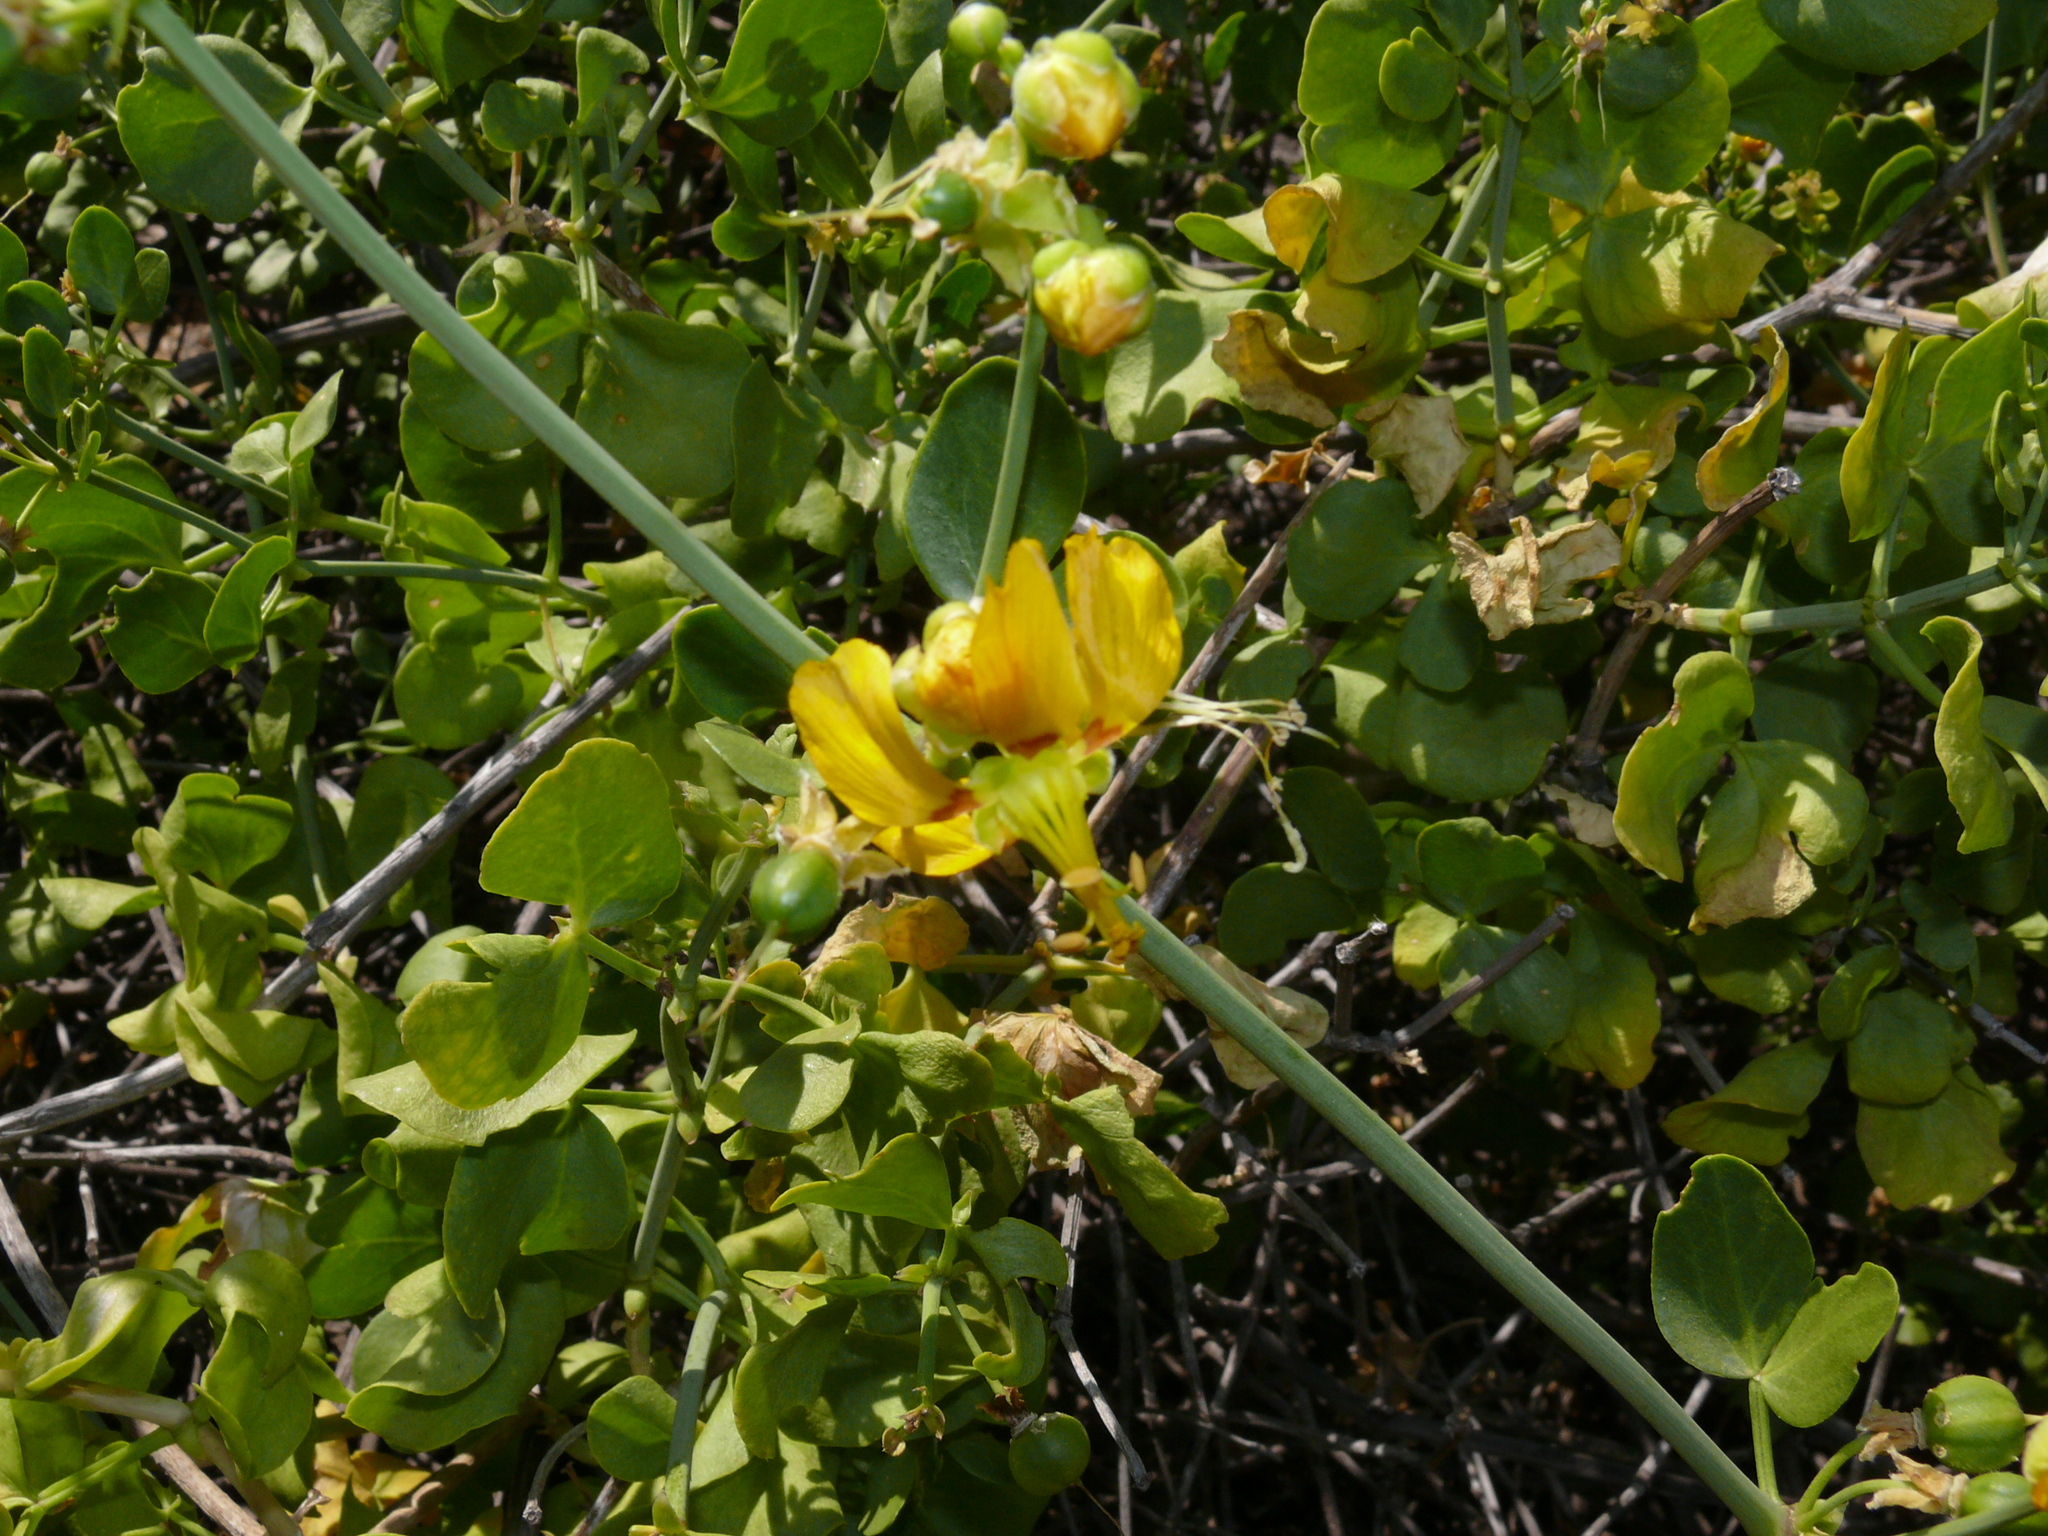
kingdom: Plantae
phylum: Tracheophyta
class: Magnoliopsida
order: Zygophyllales
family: Zygophyllaceae
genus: Roepera
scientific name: Roepera morgsana
